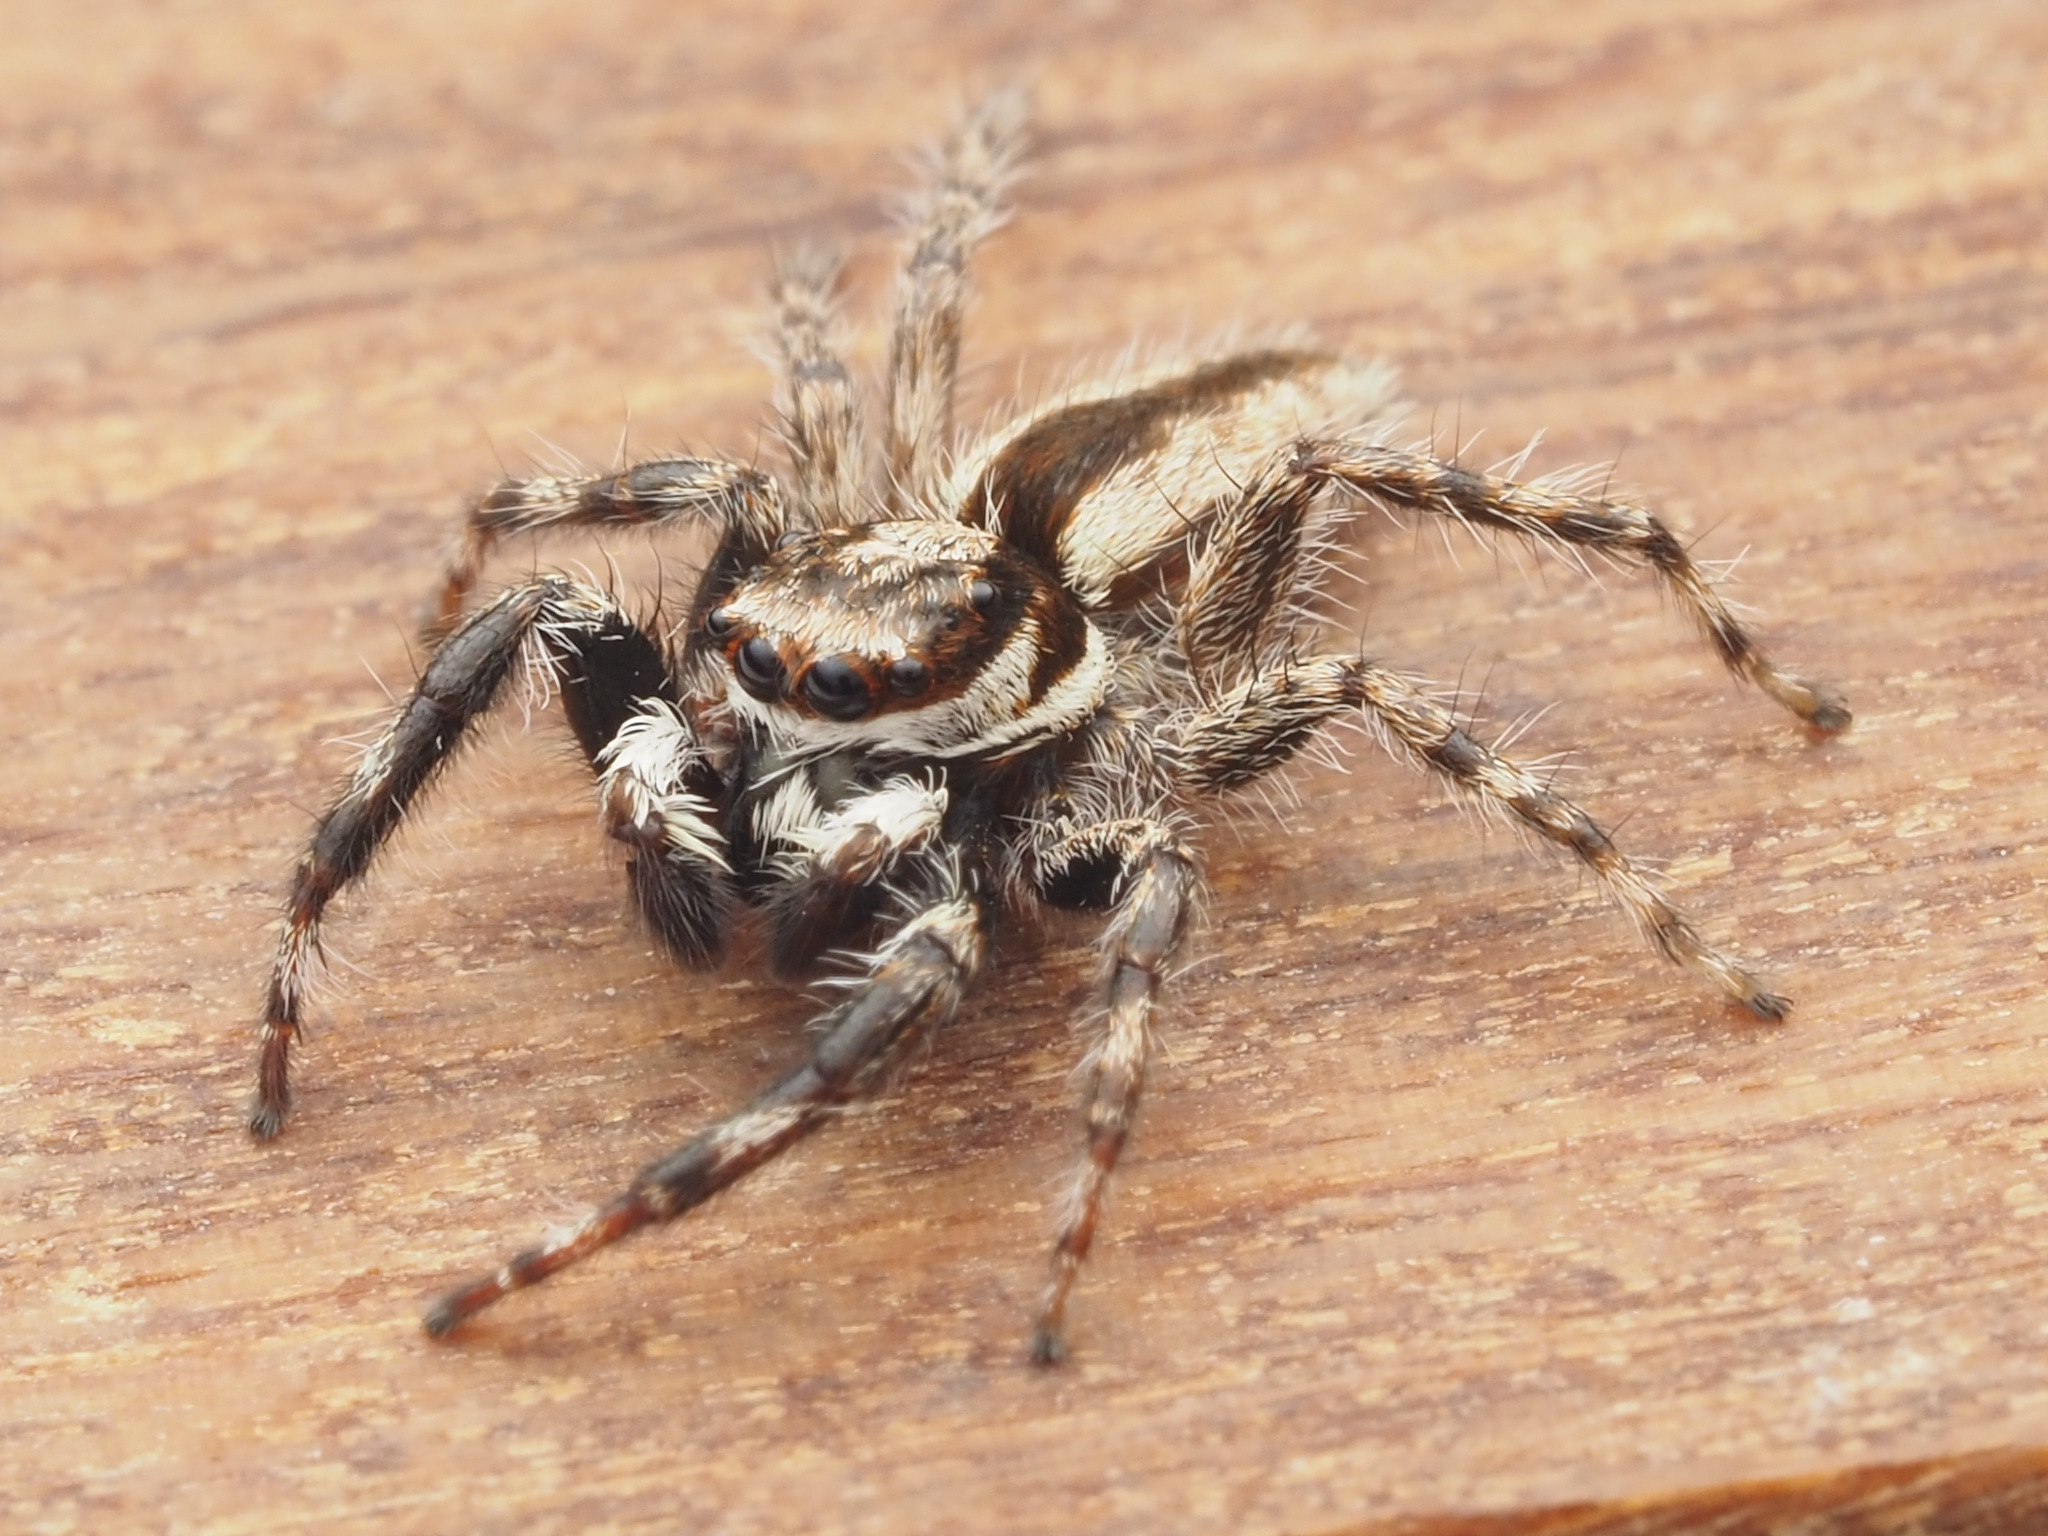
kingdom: Animalia
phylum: Arthropoda
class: Arachnida
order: Araneae
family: Salticidae
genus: Menemerus
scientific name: Menemerus bivittatus
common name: Gray wall jumper
